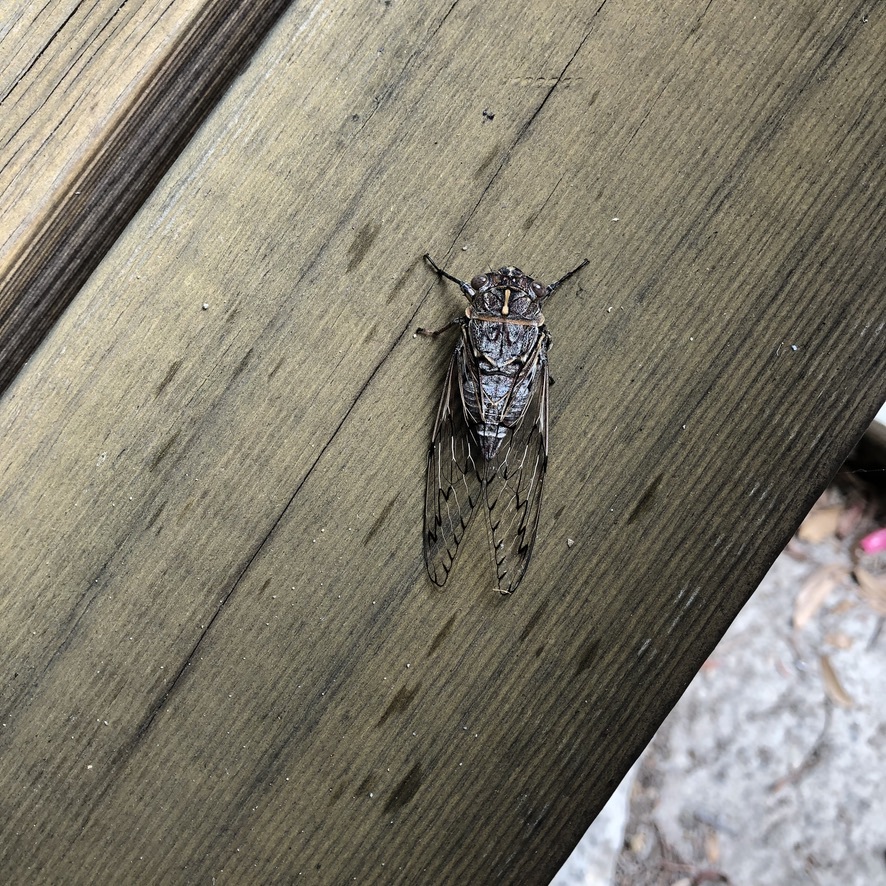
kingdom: Animalia
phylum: Arthropoda
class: Insecta
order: Hemiptera
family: Cicadidae
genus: Henicopsaltria
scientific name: Henicopsaltria eydouxii
